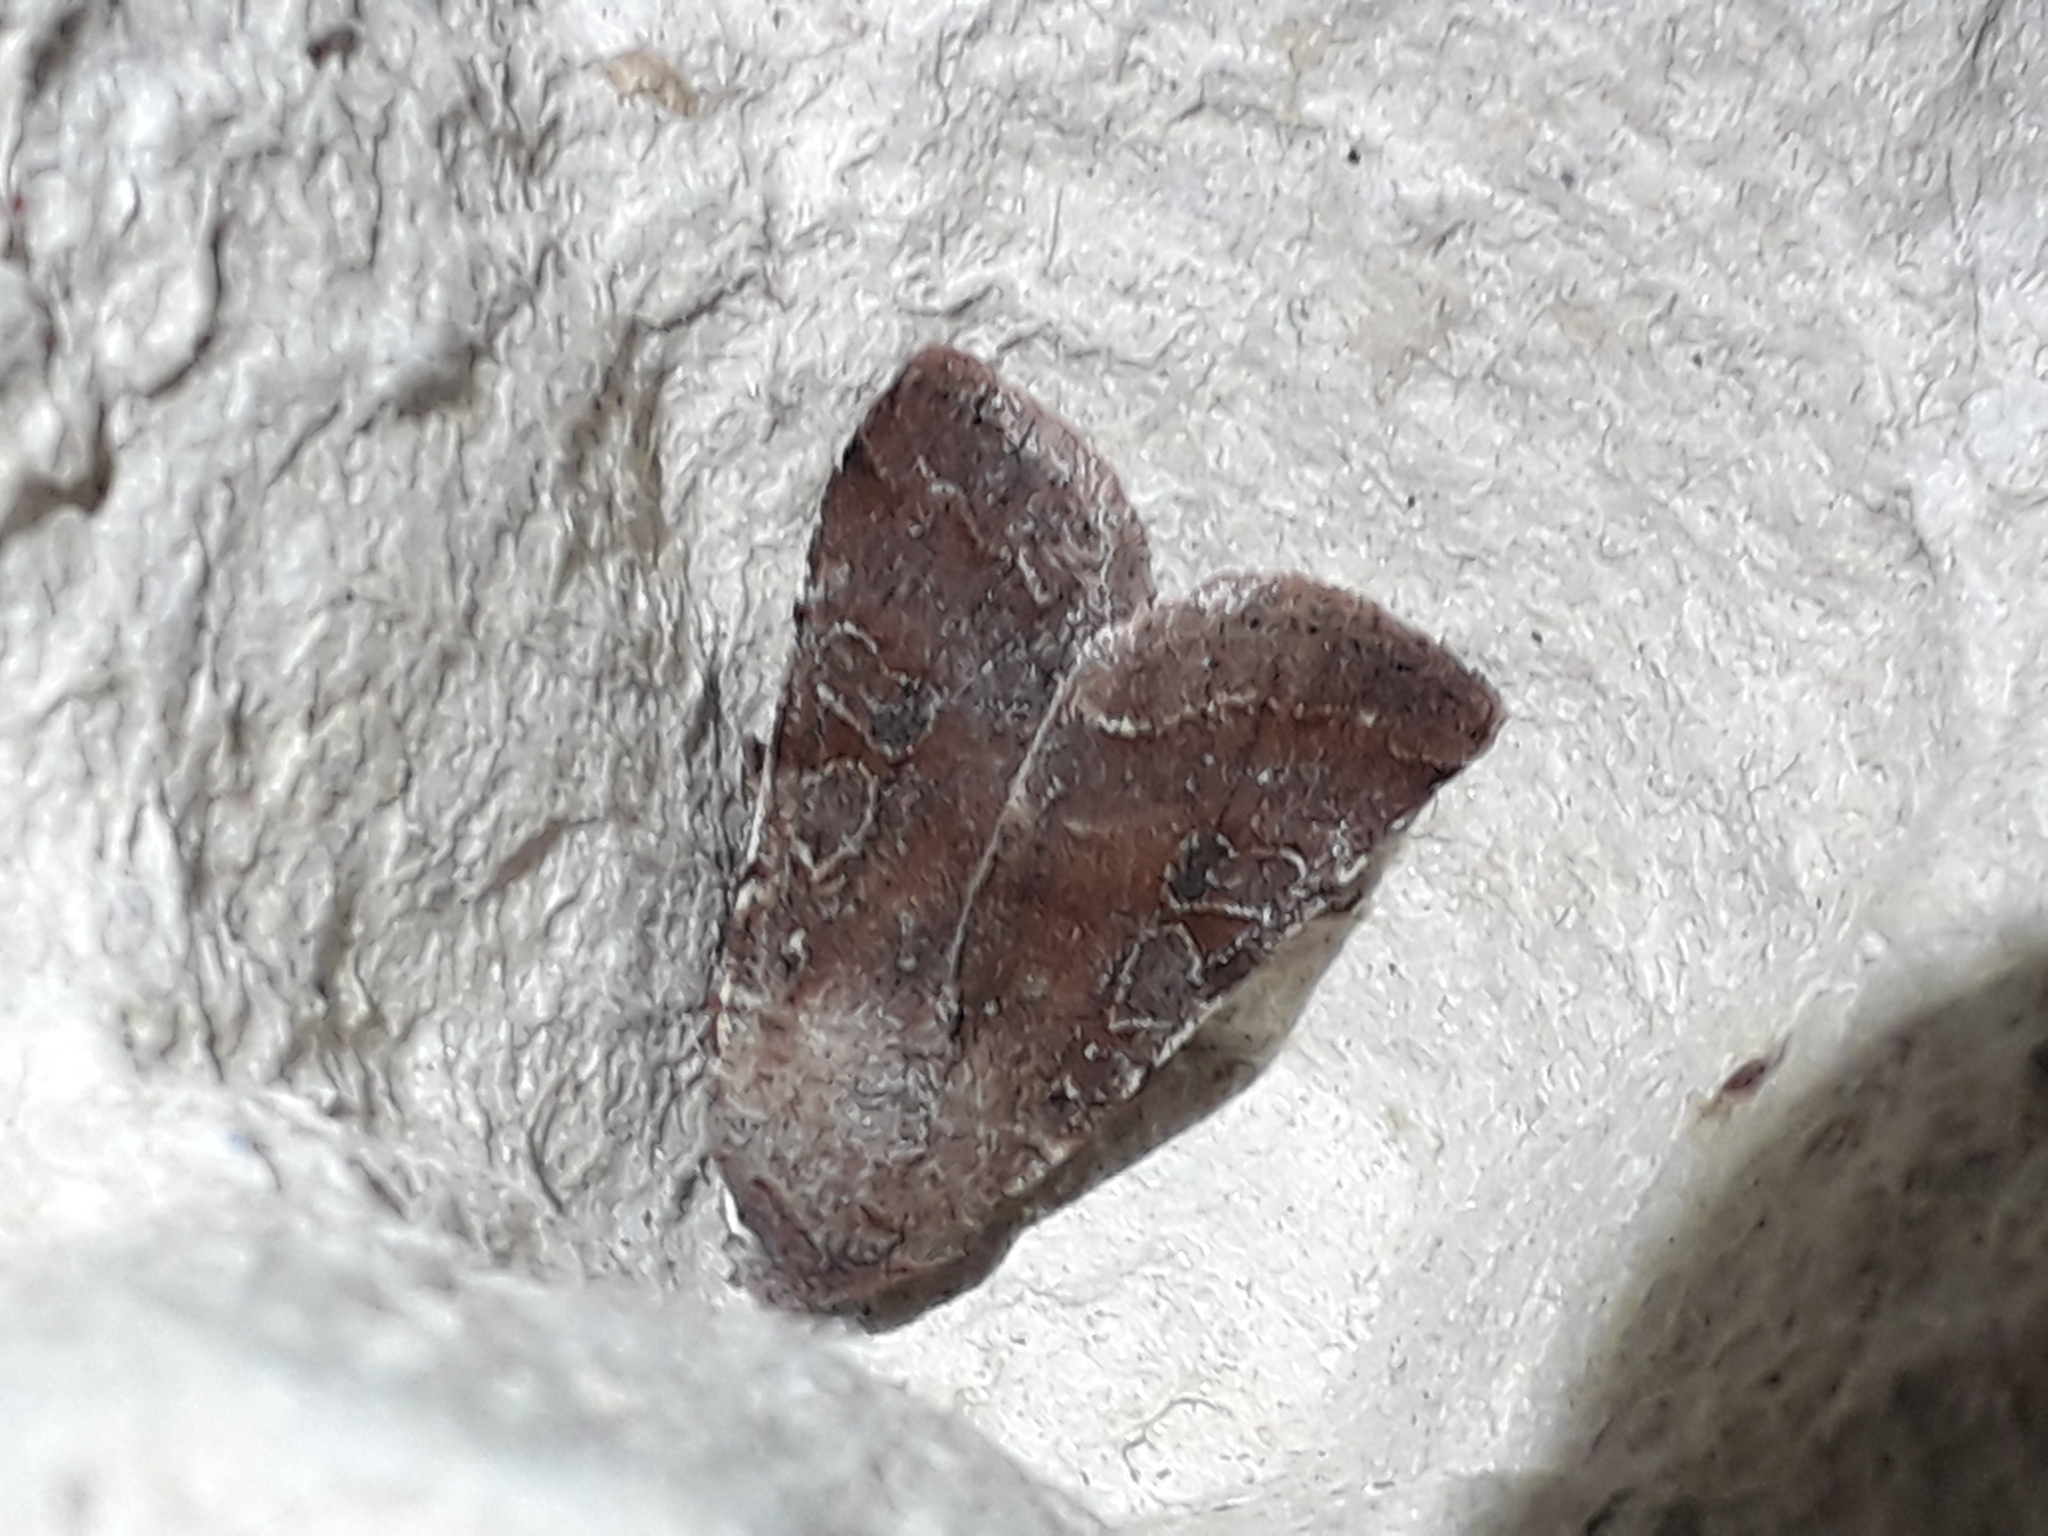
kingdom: Animalia
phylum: Arthropoda
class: Insecta
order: Lepidoptera
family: Noctuidae
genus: Orthosia
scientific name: Orthosia incerta
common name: Clouded drab
